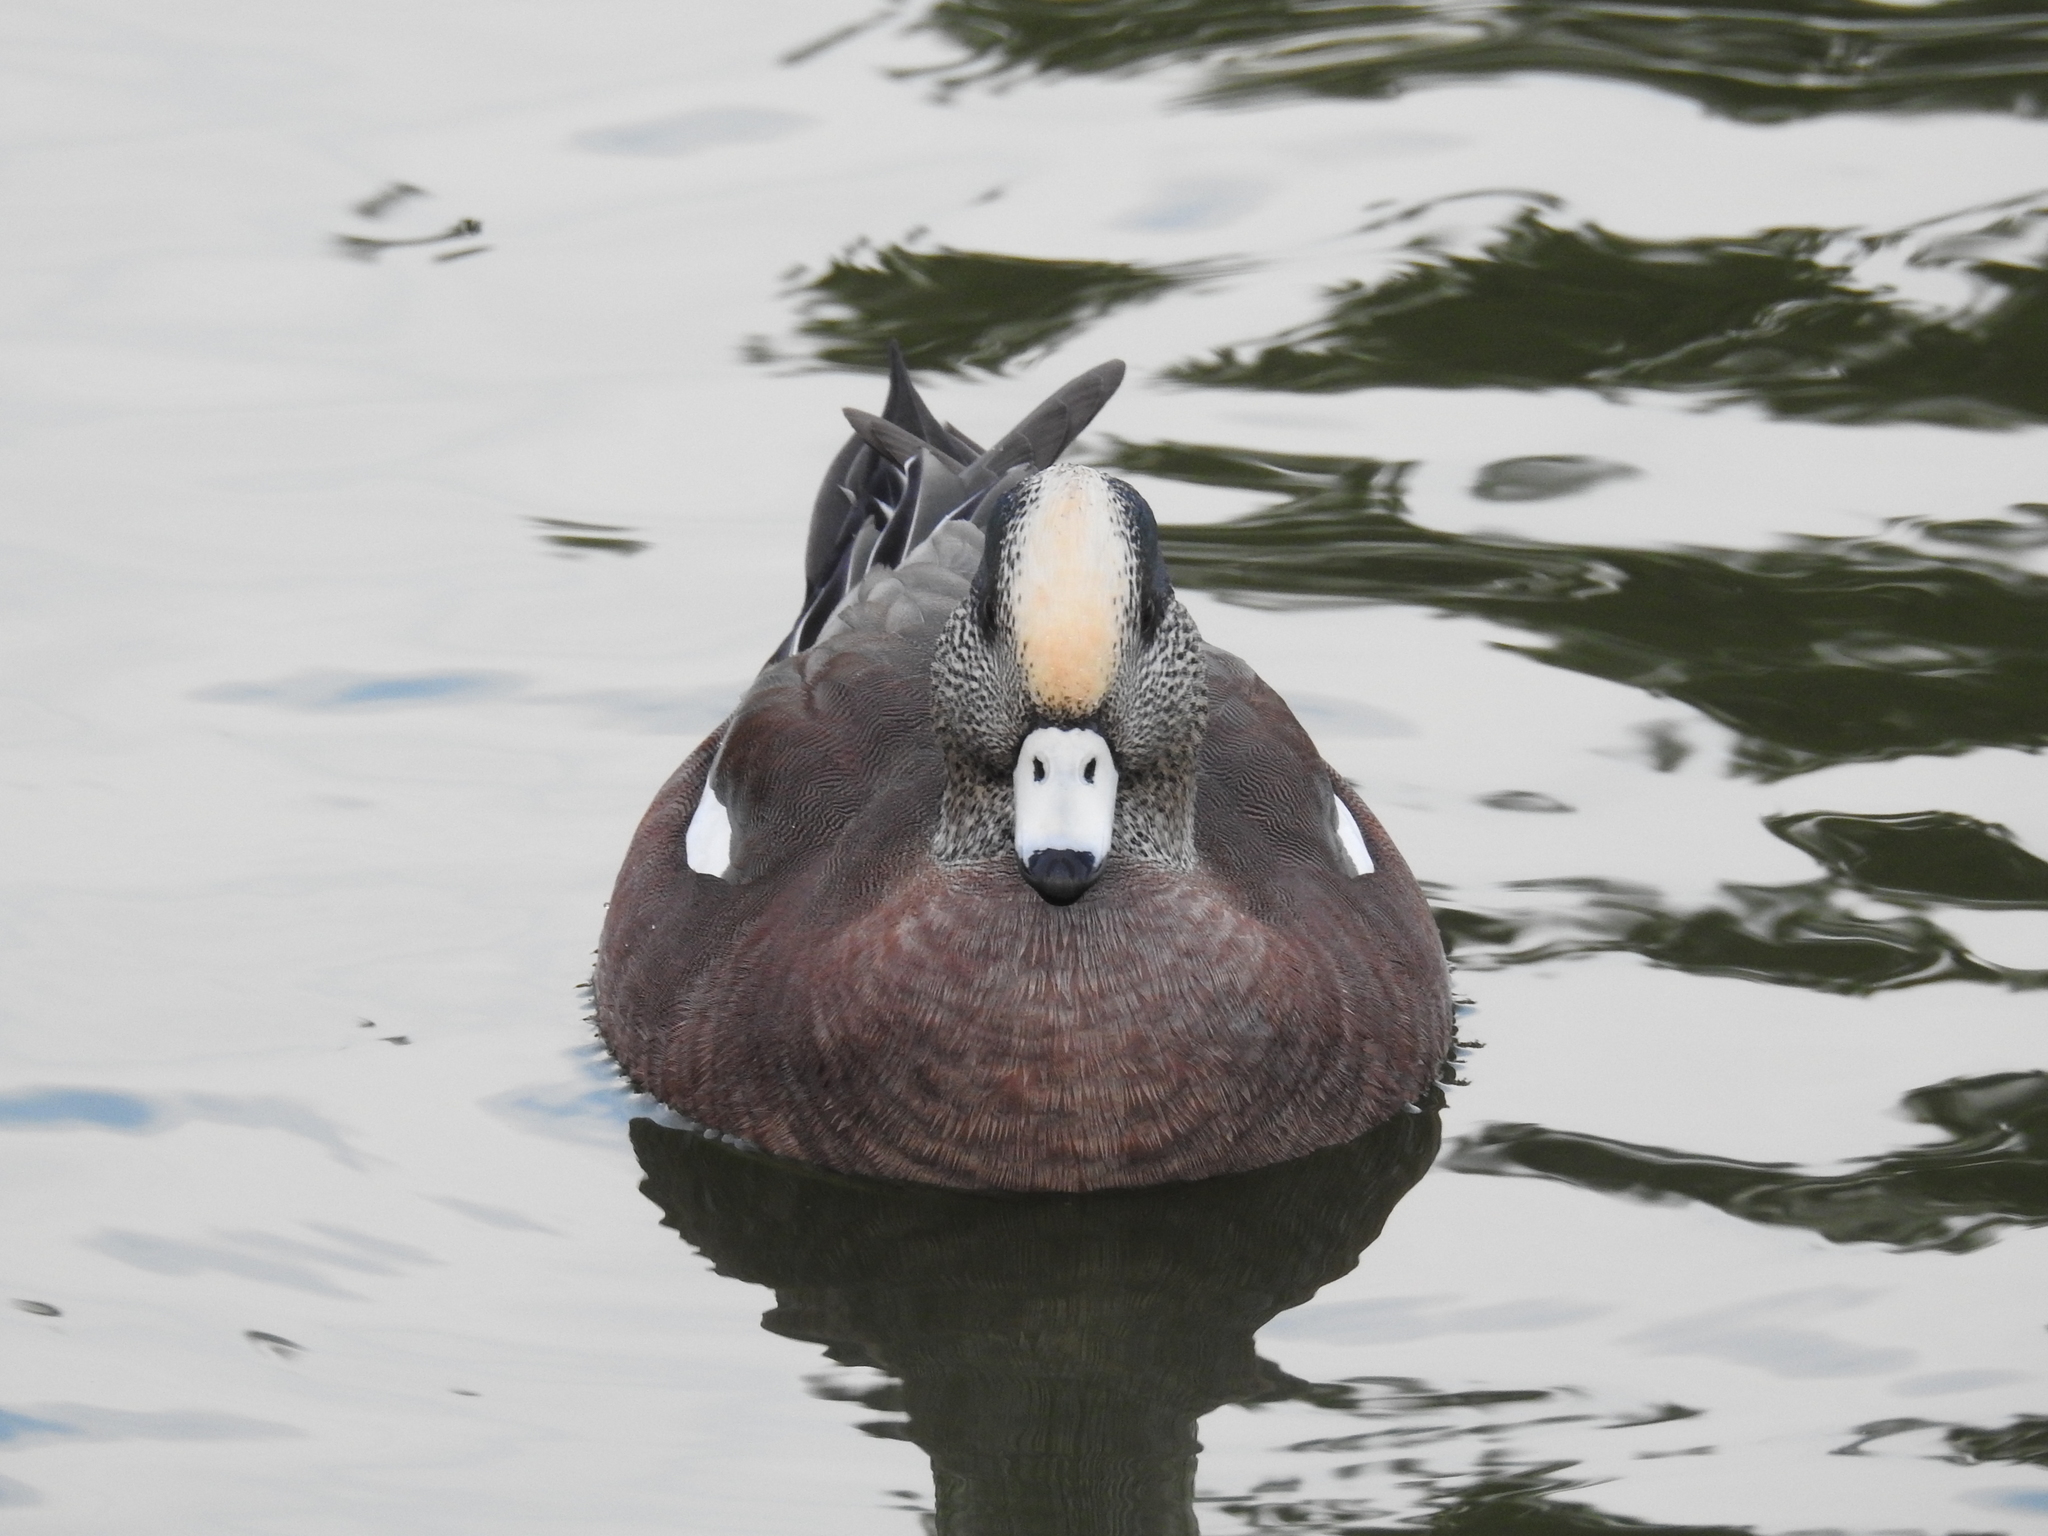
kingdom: Animalia
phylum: Chordata
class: Aves
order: Anseriformes
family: Anatidae
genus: Mareca
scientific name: Mareca americana
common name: American wigeon
